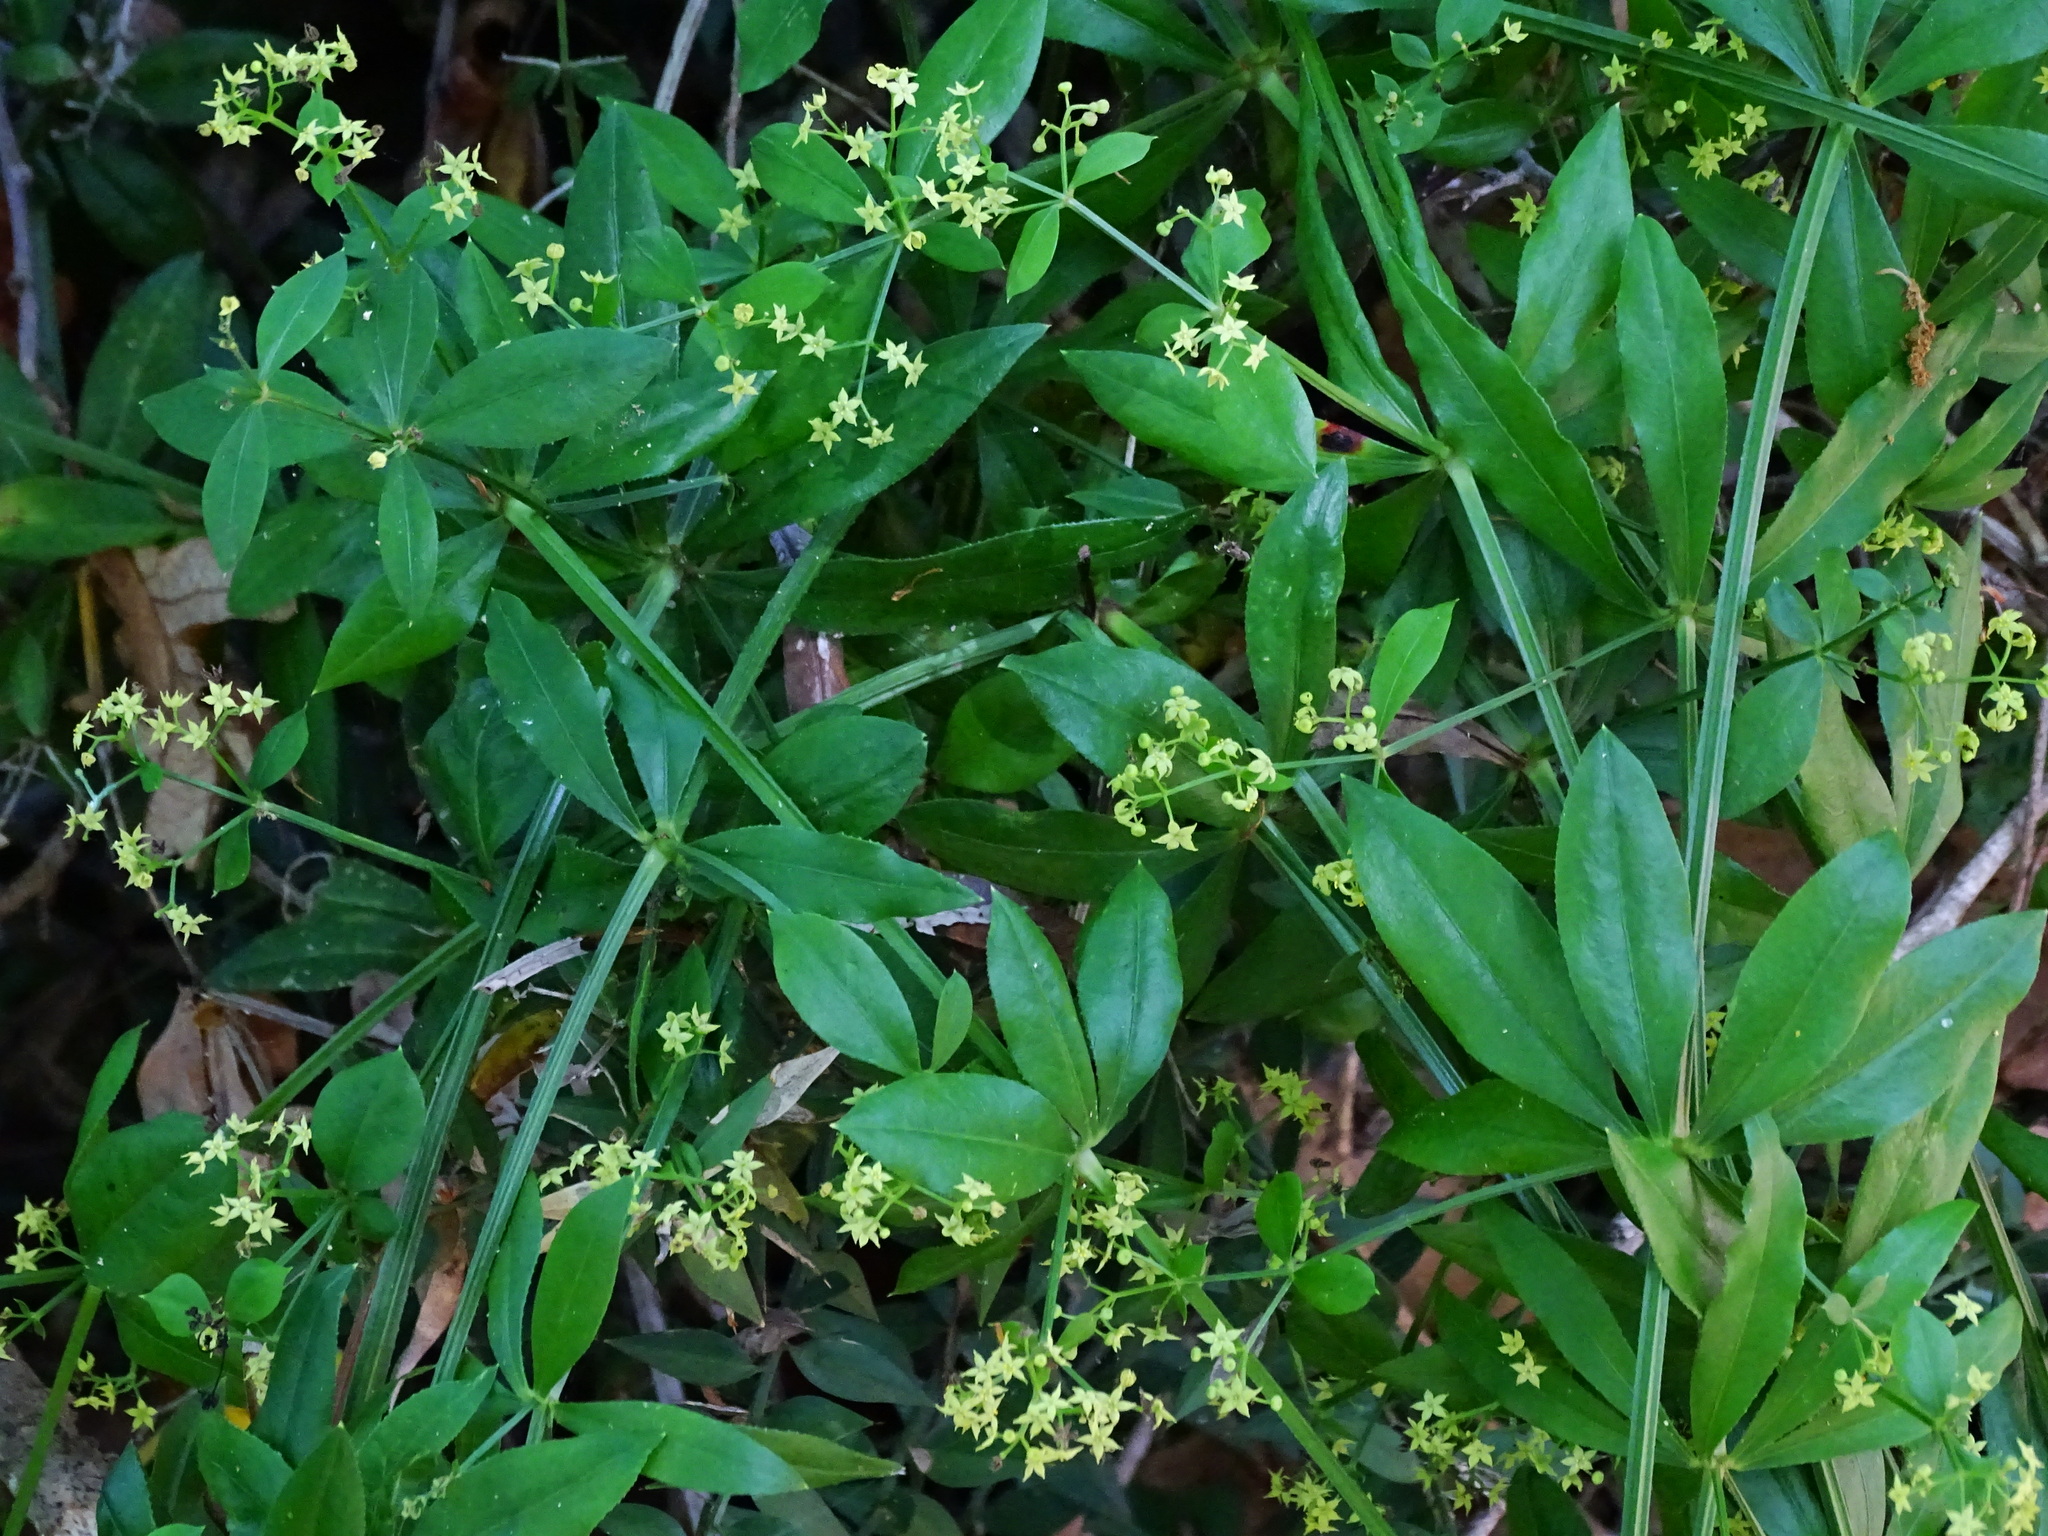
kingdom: Plantae
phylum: Tracheophyta
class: Magnoliopsida
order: Gentianales
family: Rubiaceae
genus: Rubia
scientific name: Rubia peregrina
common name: Wild madder
